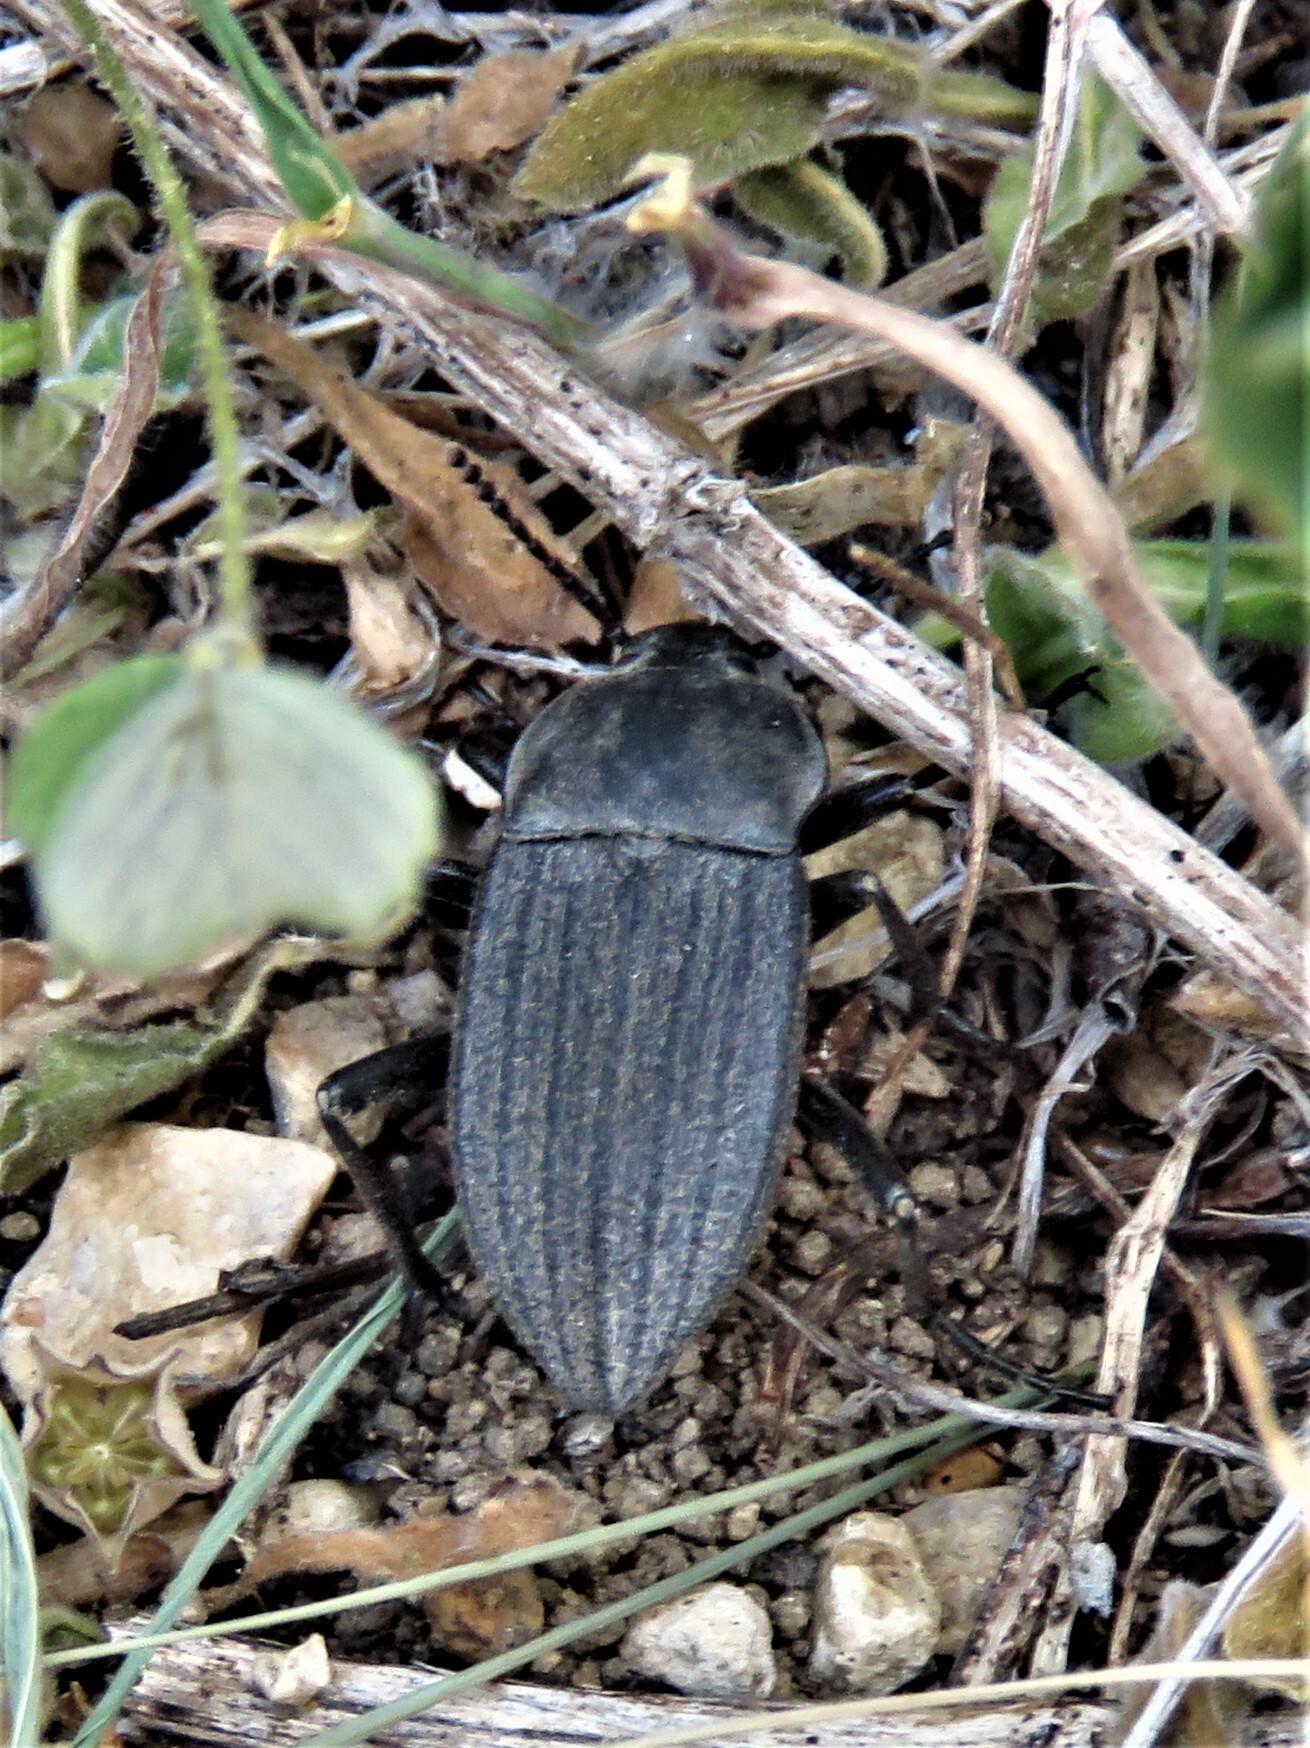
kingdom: Animalia
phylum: Arthropoda
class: Insecta
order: Coleoptera
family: Tenebrionidae
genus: Eleodes
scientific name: Eleodes tricostata
